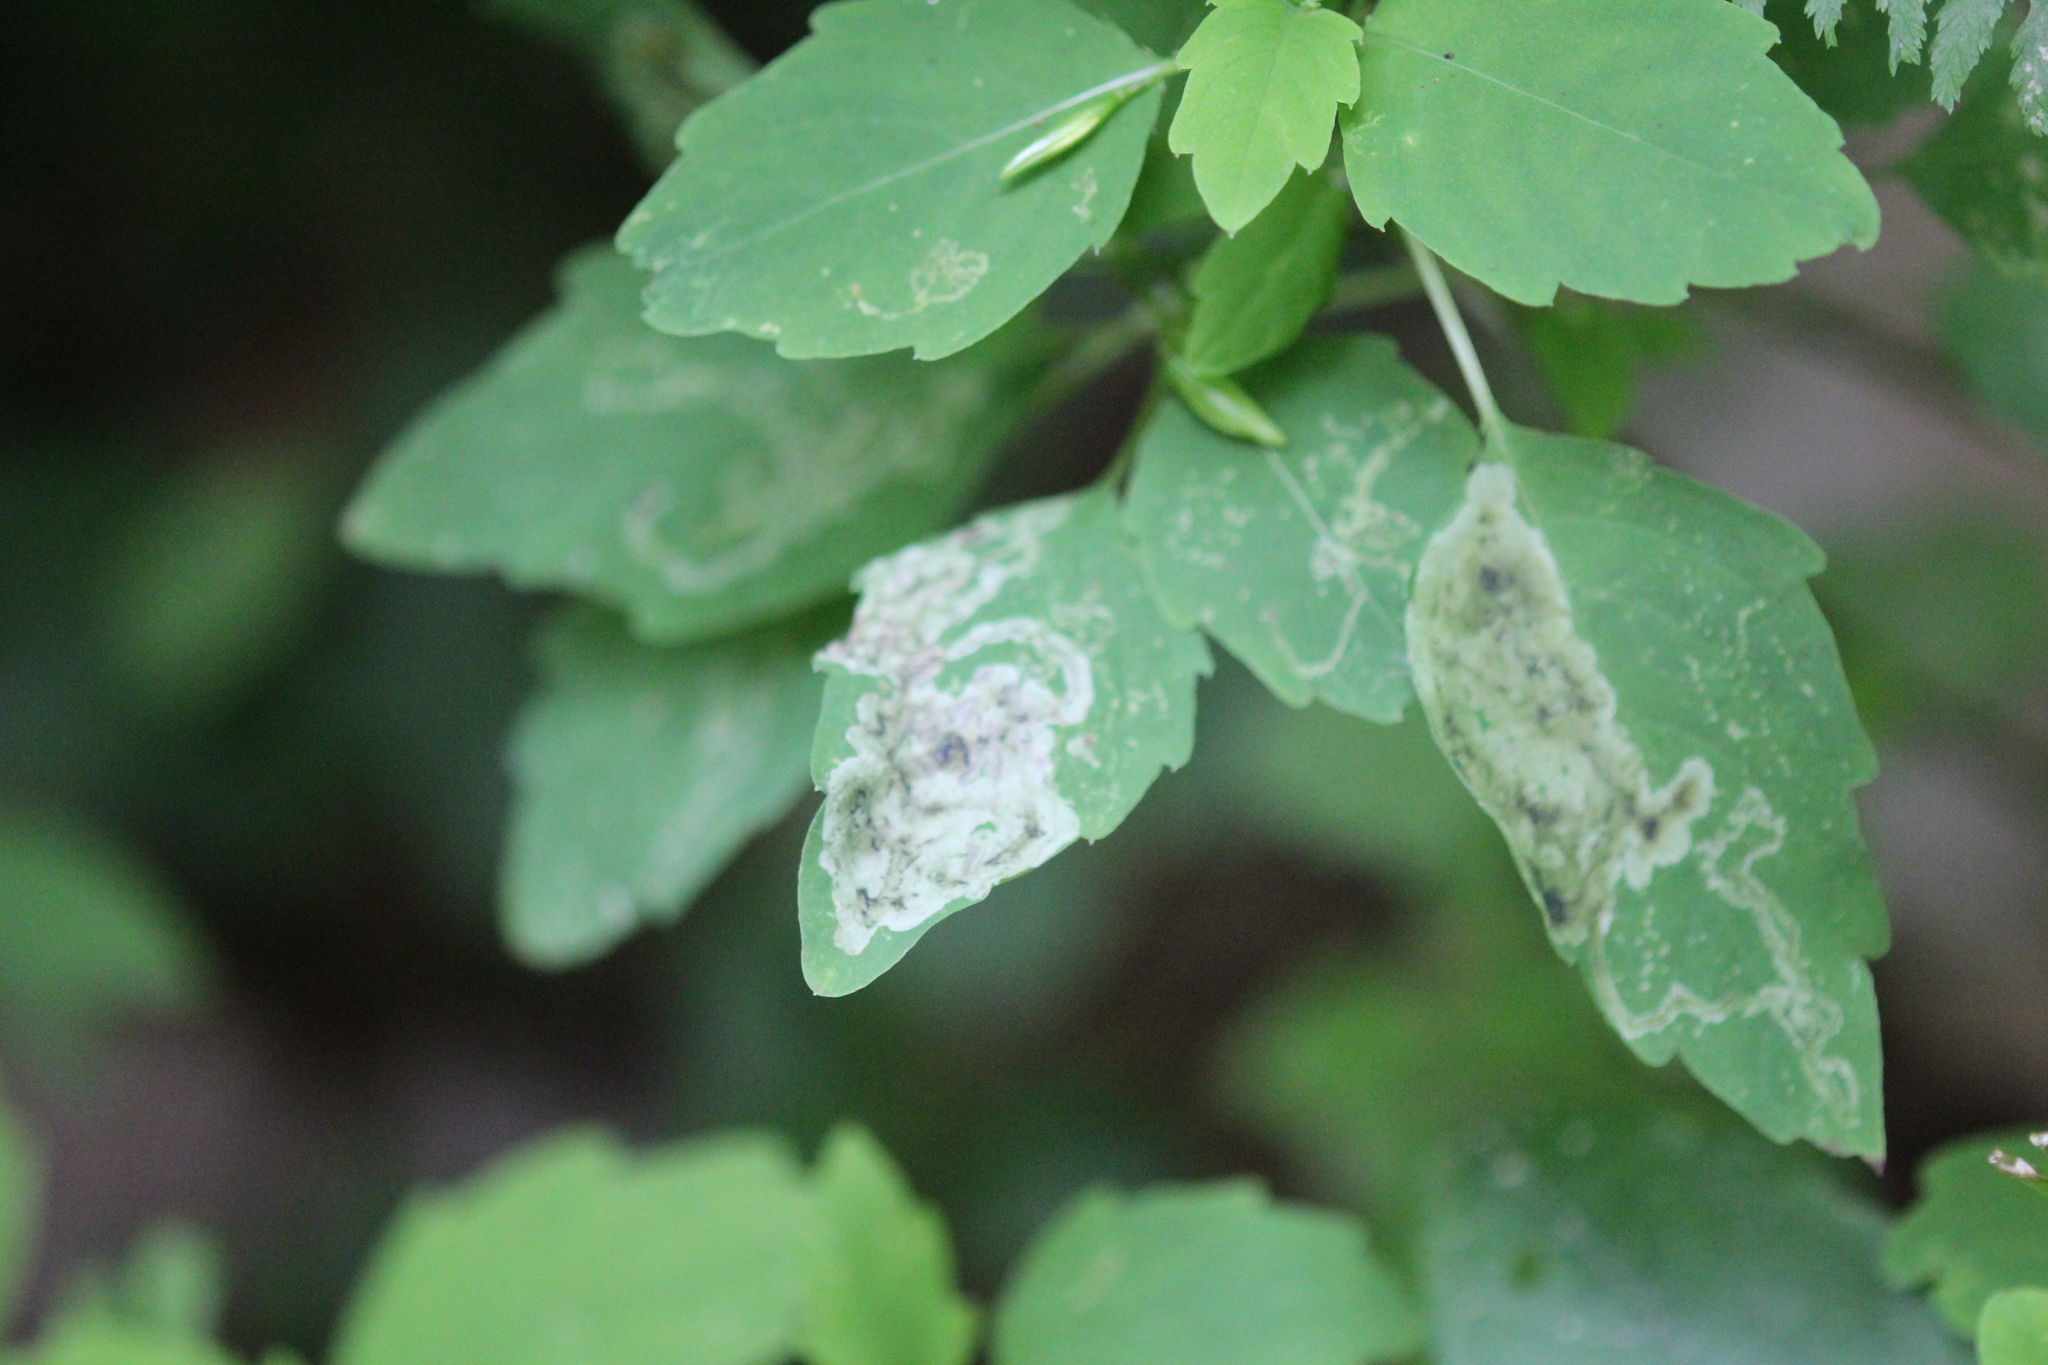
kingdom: Animalia
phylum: Arthropoda
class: Insecta
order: Diptera
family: Agromyzidae
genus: Phytoliriomyza
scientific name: Phytoliriomyza melampyga
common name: Jewelweed leaf-miner fly
